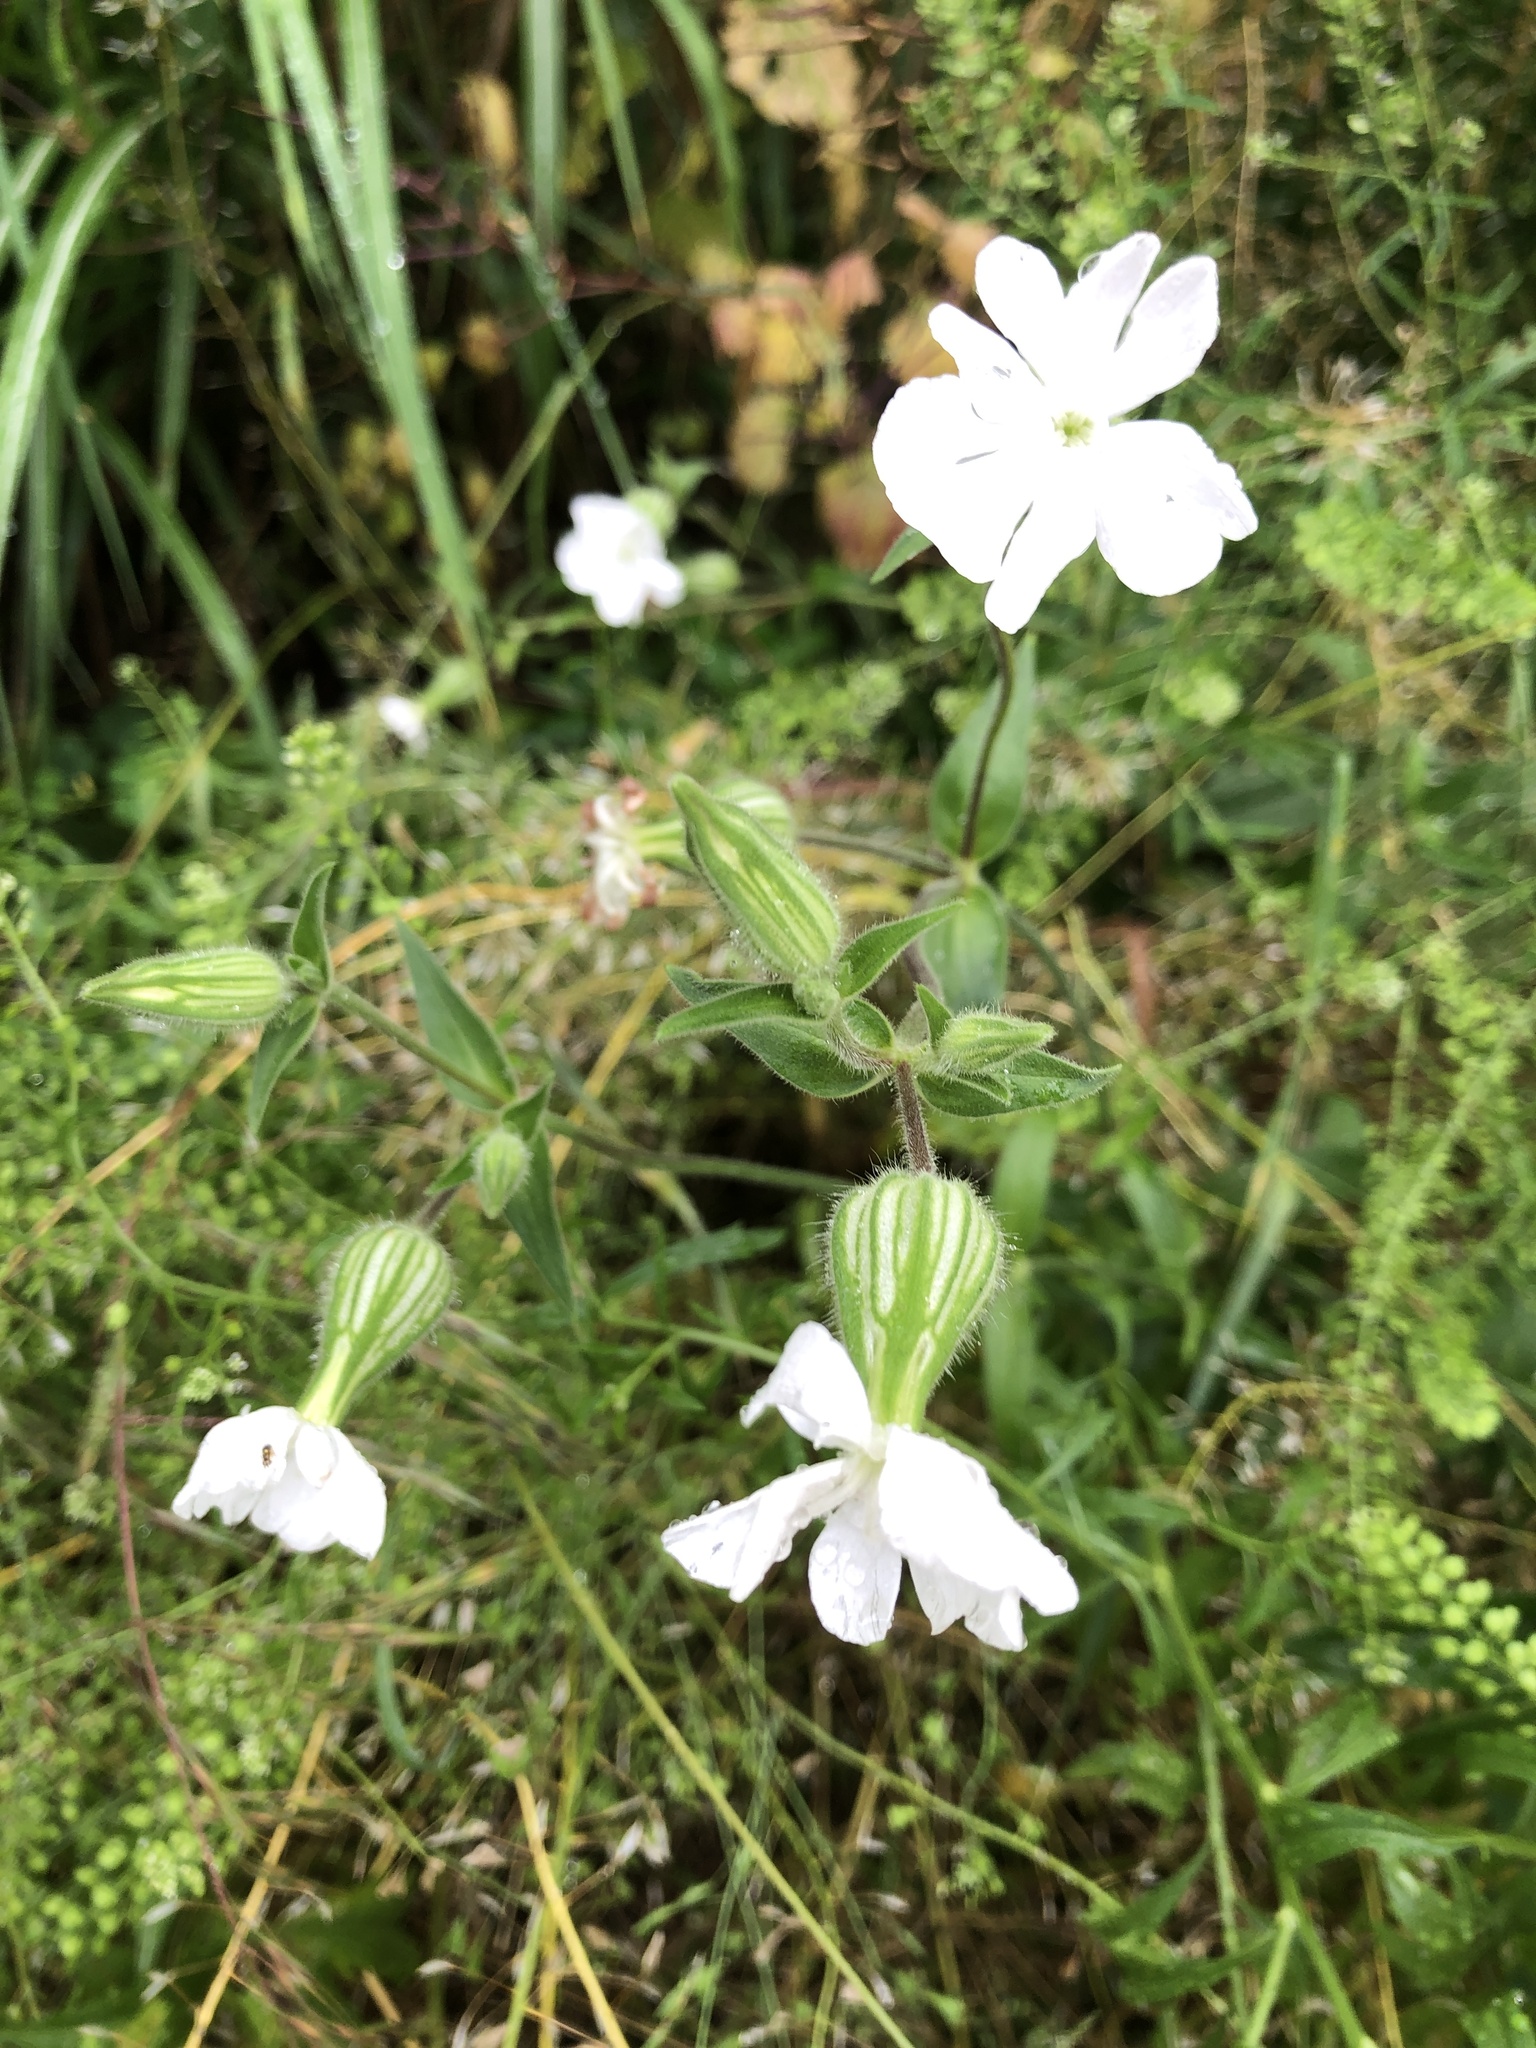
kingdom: Plantae
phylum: Tracheophyta
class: Magnoliopsida
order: Caryophyllales
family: Caryophyllaceae
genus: Silene
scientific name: Silene latifolia
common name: White campion
